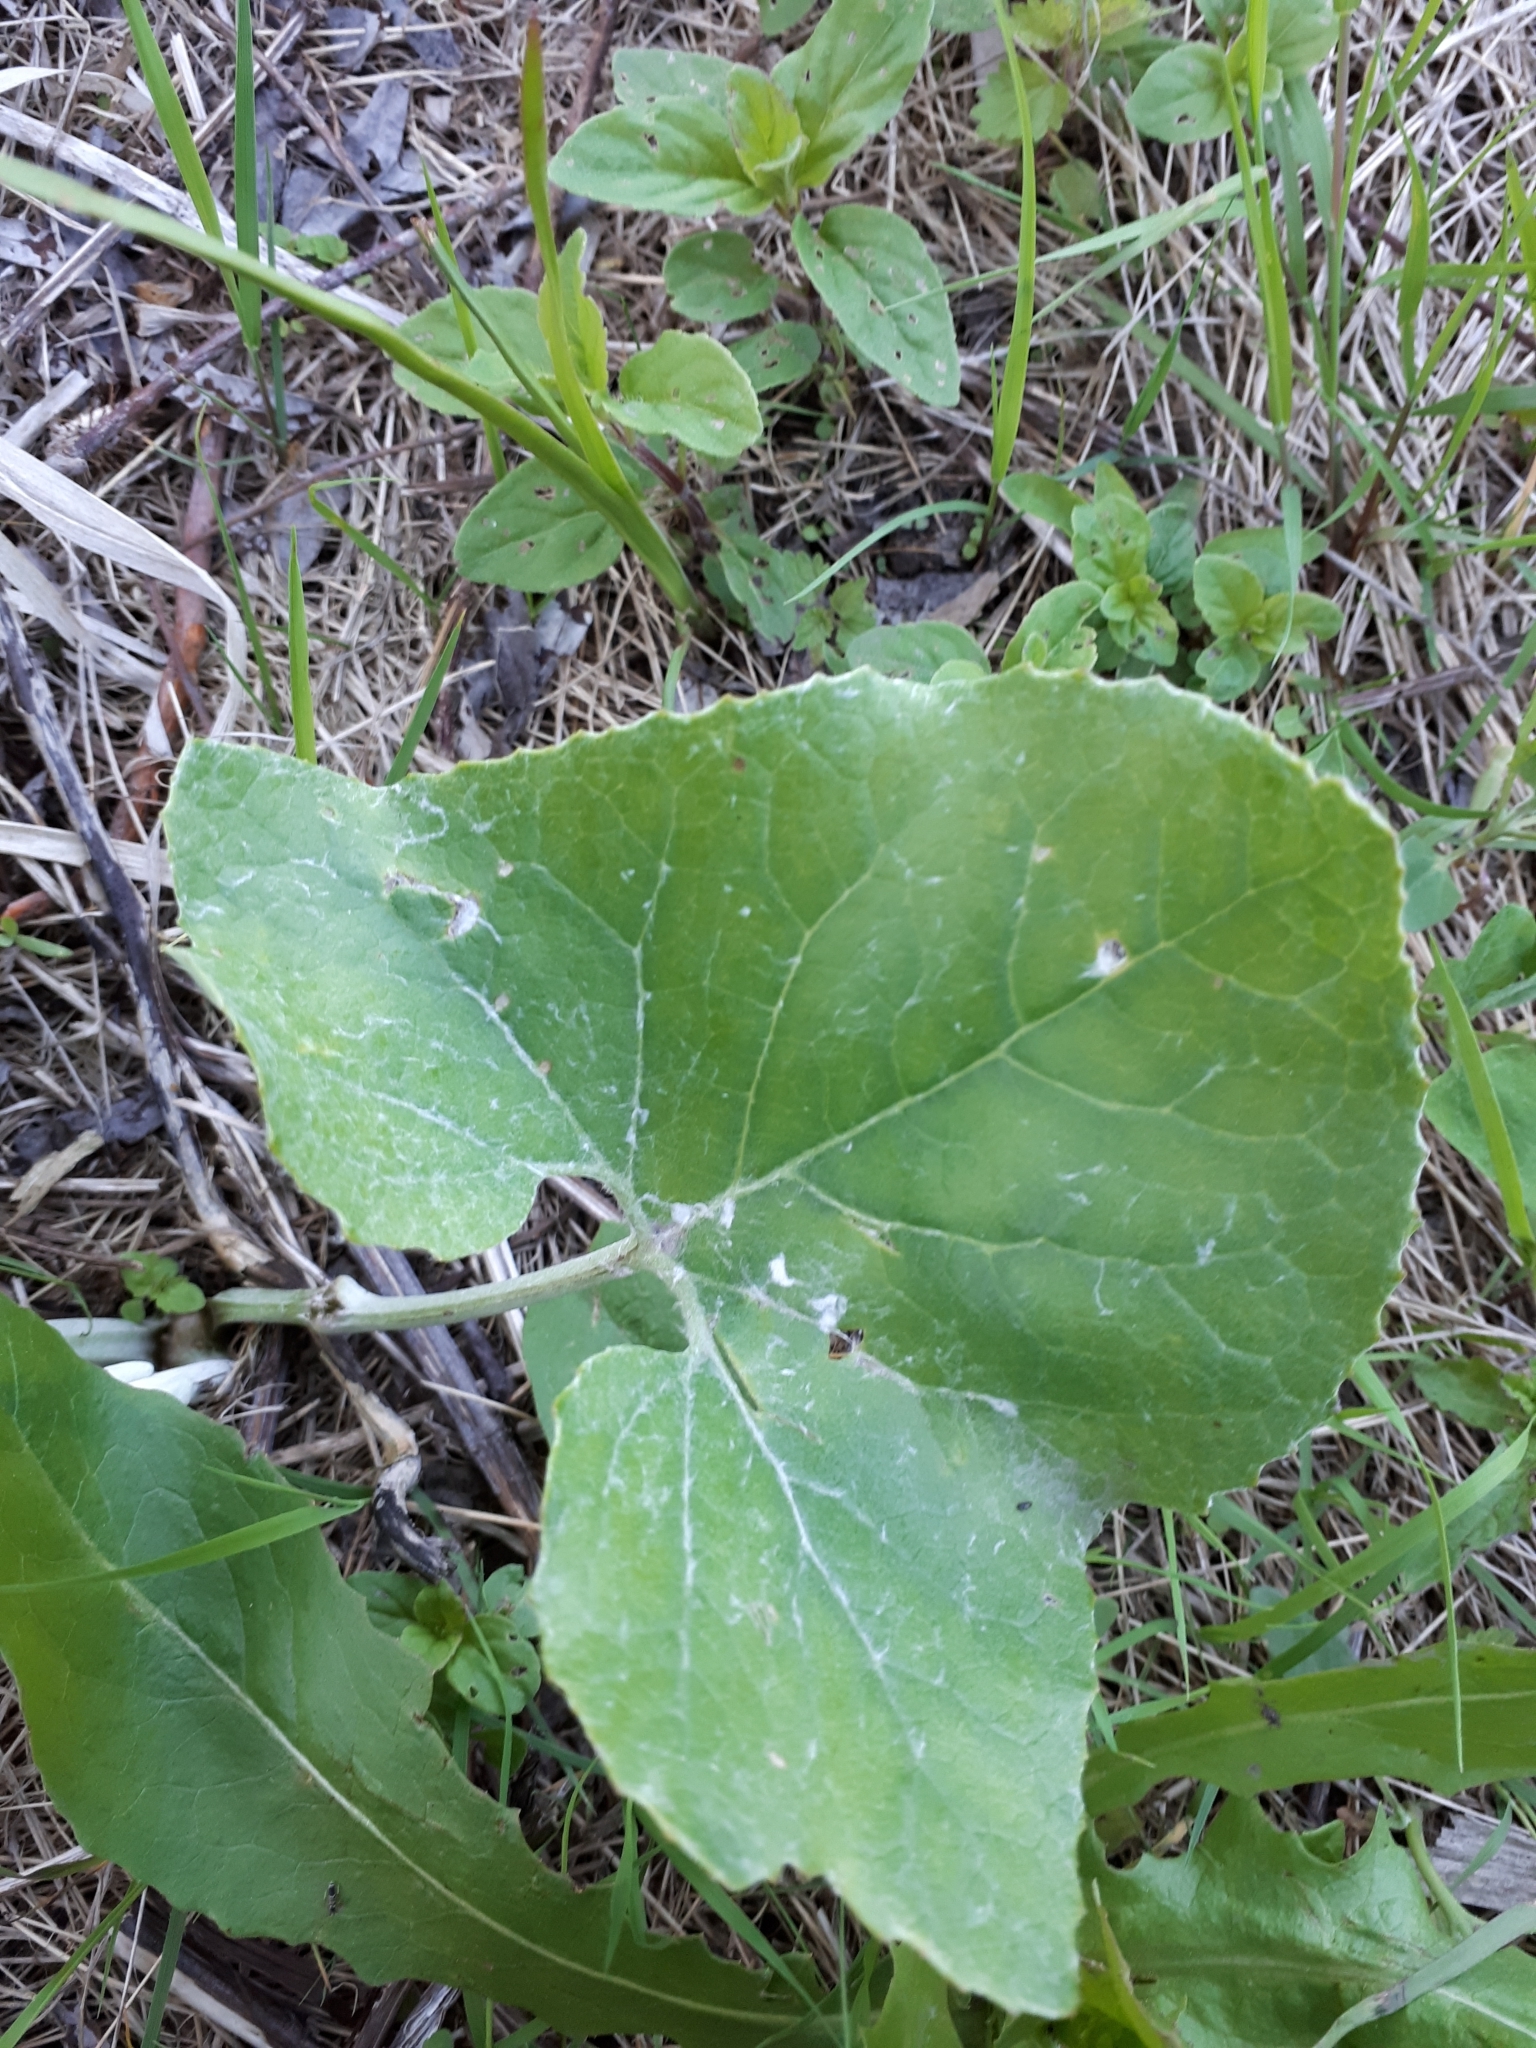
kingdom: Plantae
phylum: Tracheophyta
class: Magnoliopsida
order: Asterales
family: Asteraceae
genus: Petasites
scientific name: Petasites spurius
